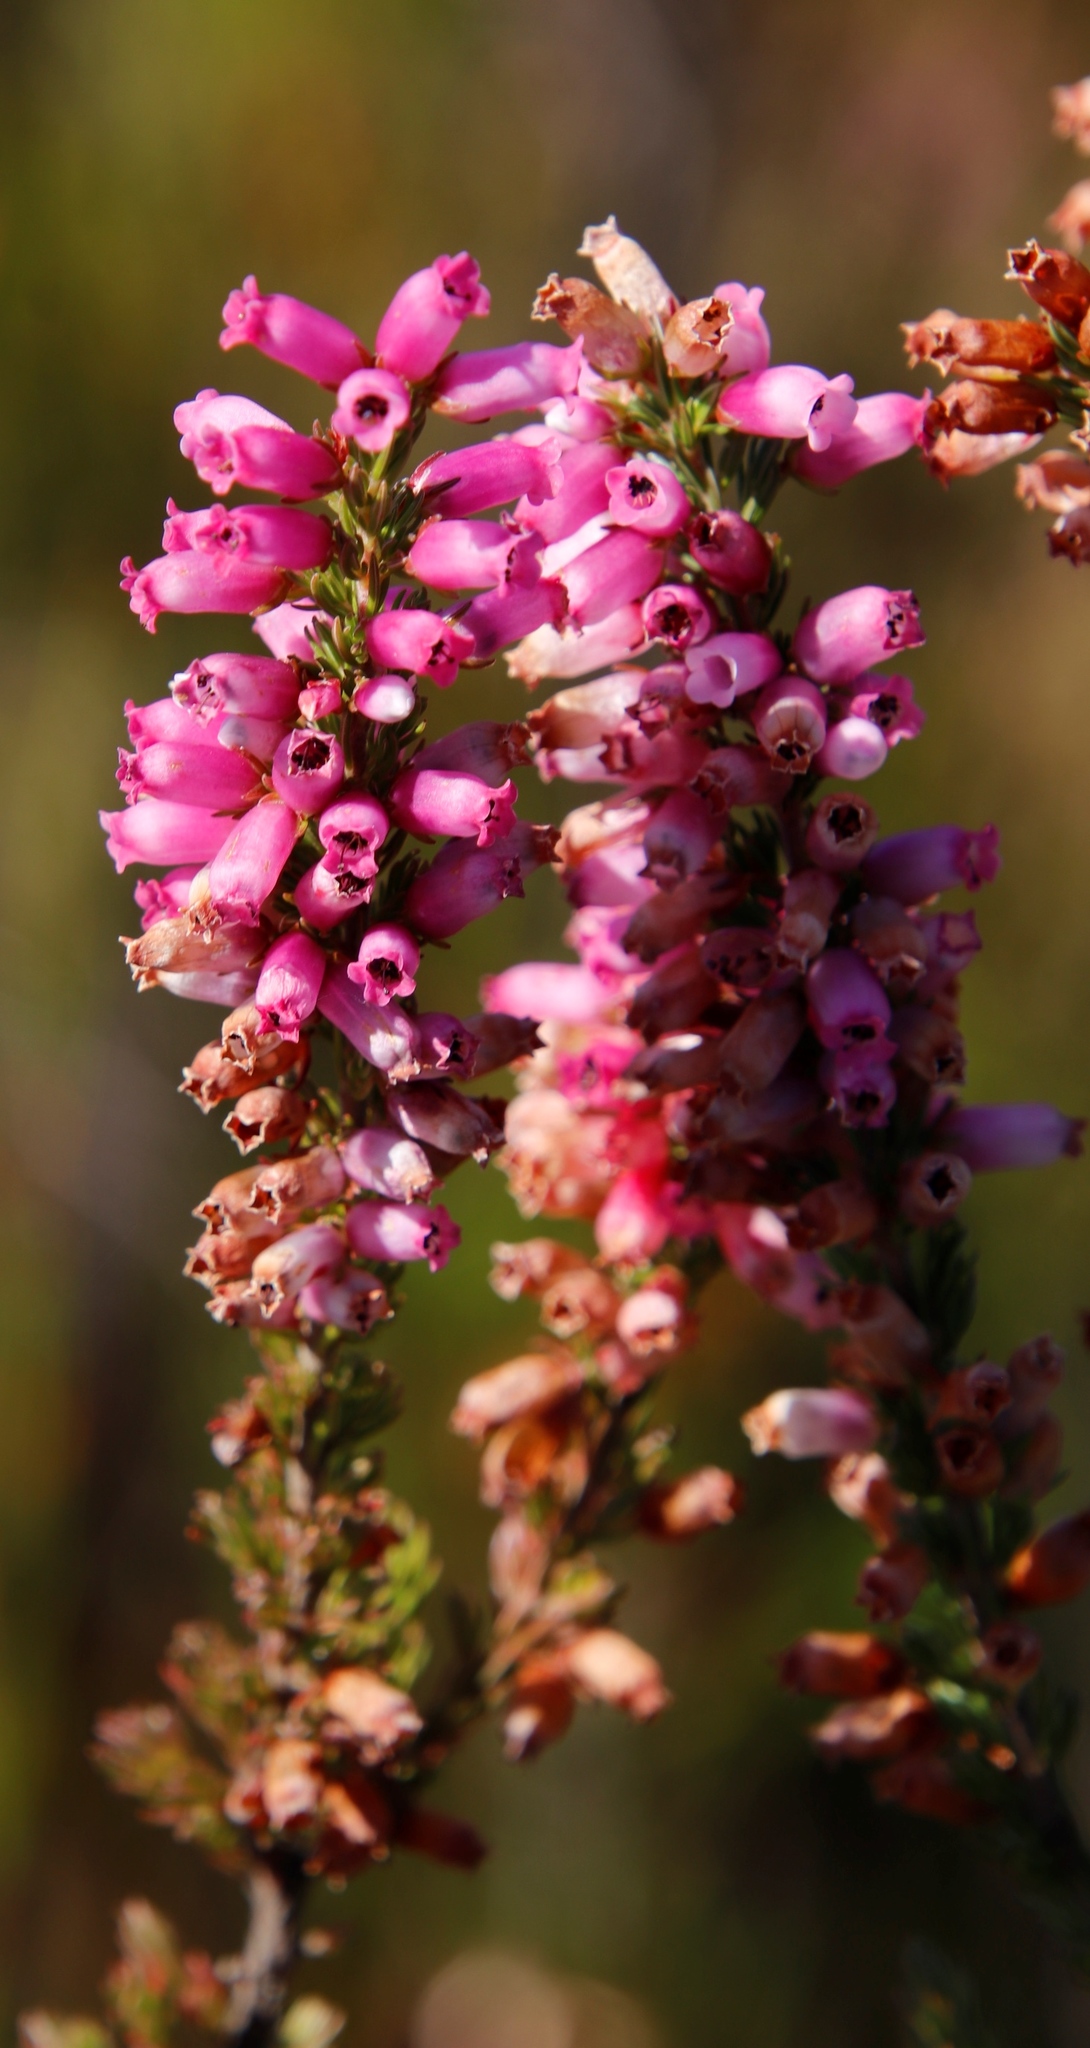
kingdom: Plantae
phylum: Tracheophyta
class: Magnoliopsida
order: Ericales
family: Ericaceae
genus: Erica
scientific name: Erica sitiens
